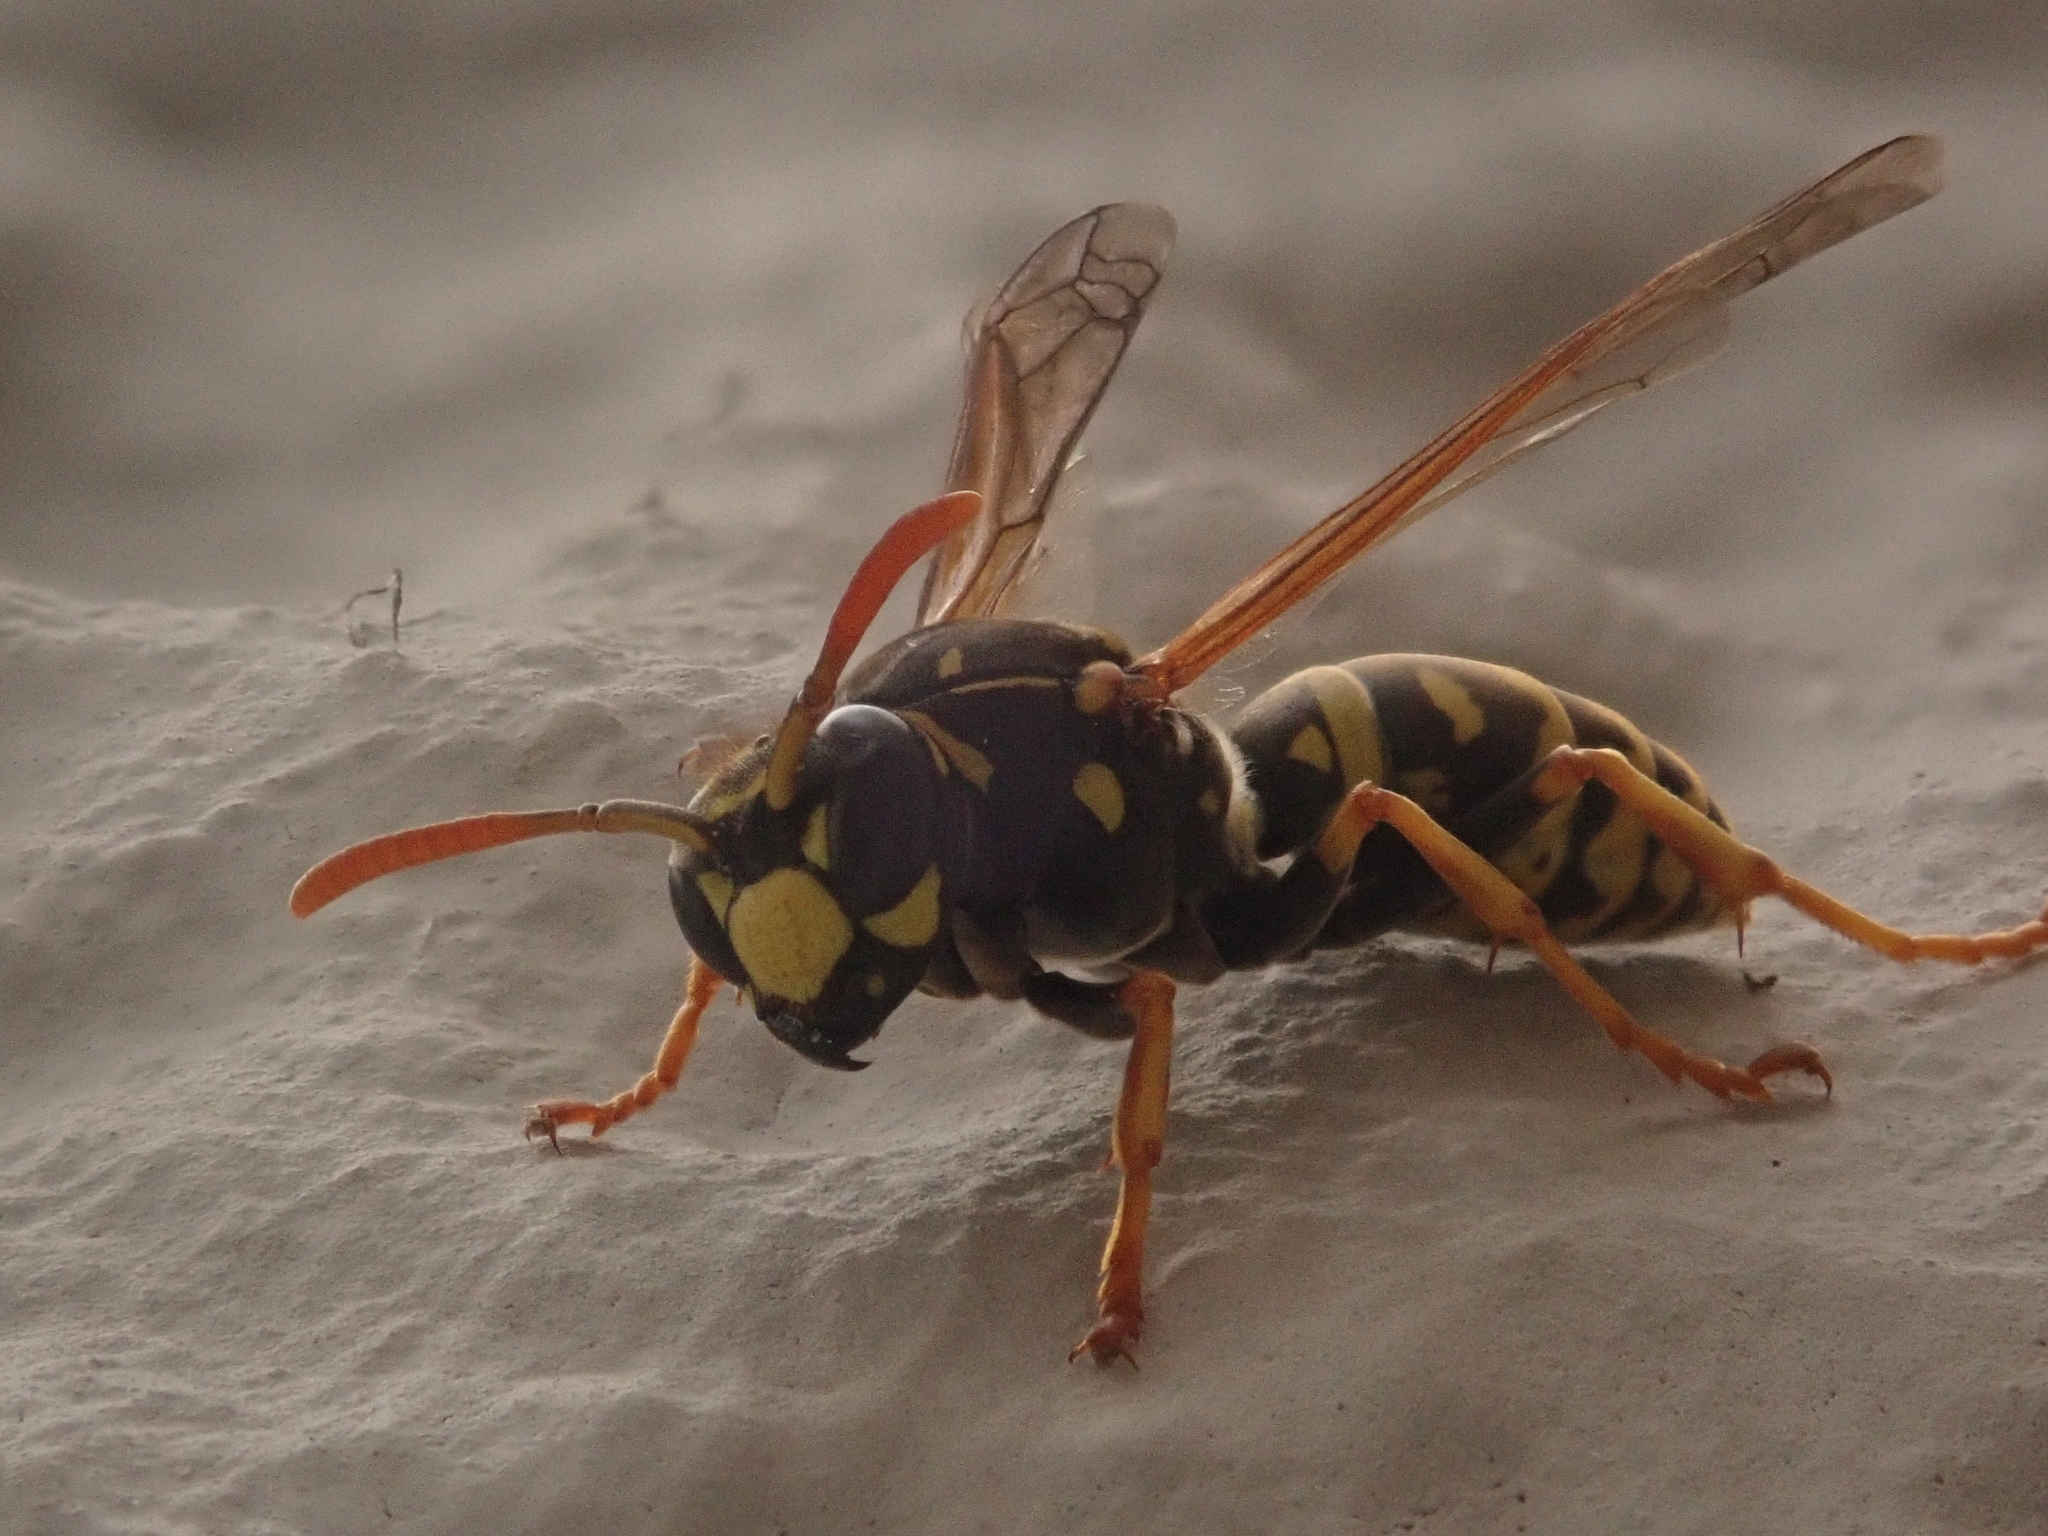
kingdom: Animalia
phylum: Arthropoda
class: Insecta
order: Hymenoptera
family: Eumenidae
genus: Polistes
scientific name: Polistes dominula
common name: Paper wasp
